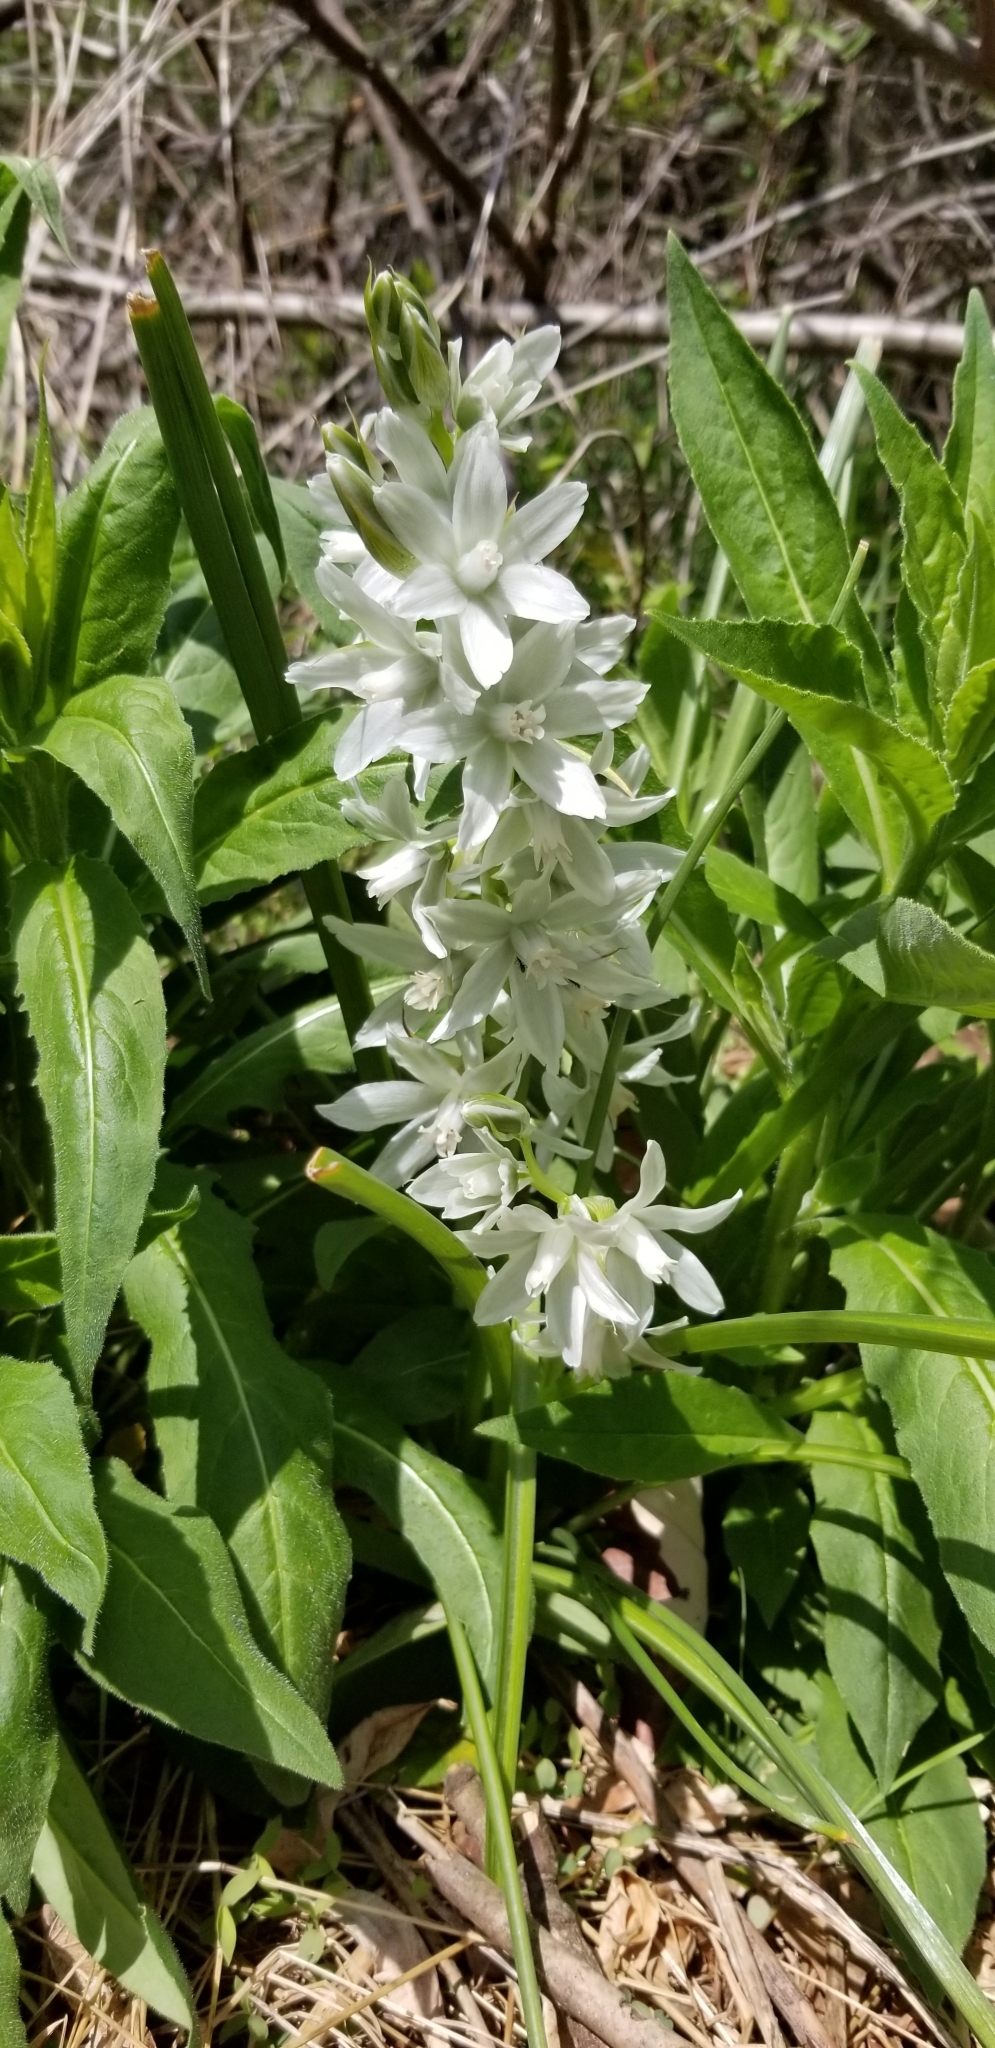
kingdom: Plantae
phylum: Tracheophyta
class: Liliopsida
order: Asparagales
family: Asparagaceae
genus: Ornithogalum
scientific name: Ornithogalum nutans
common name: Drooping star-of-bethlehem
